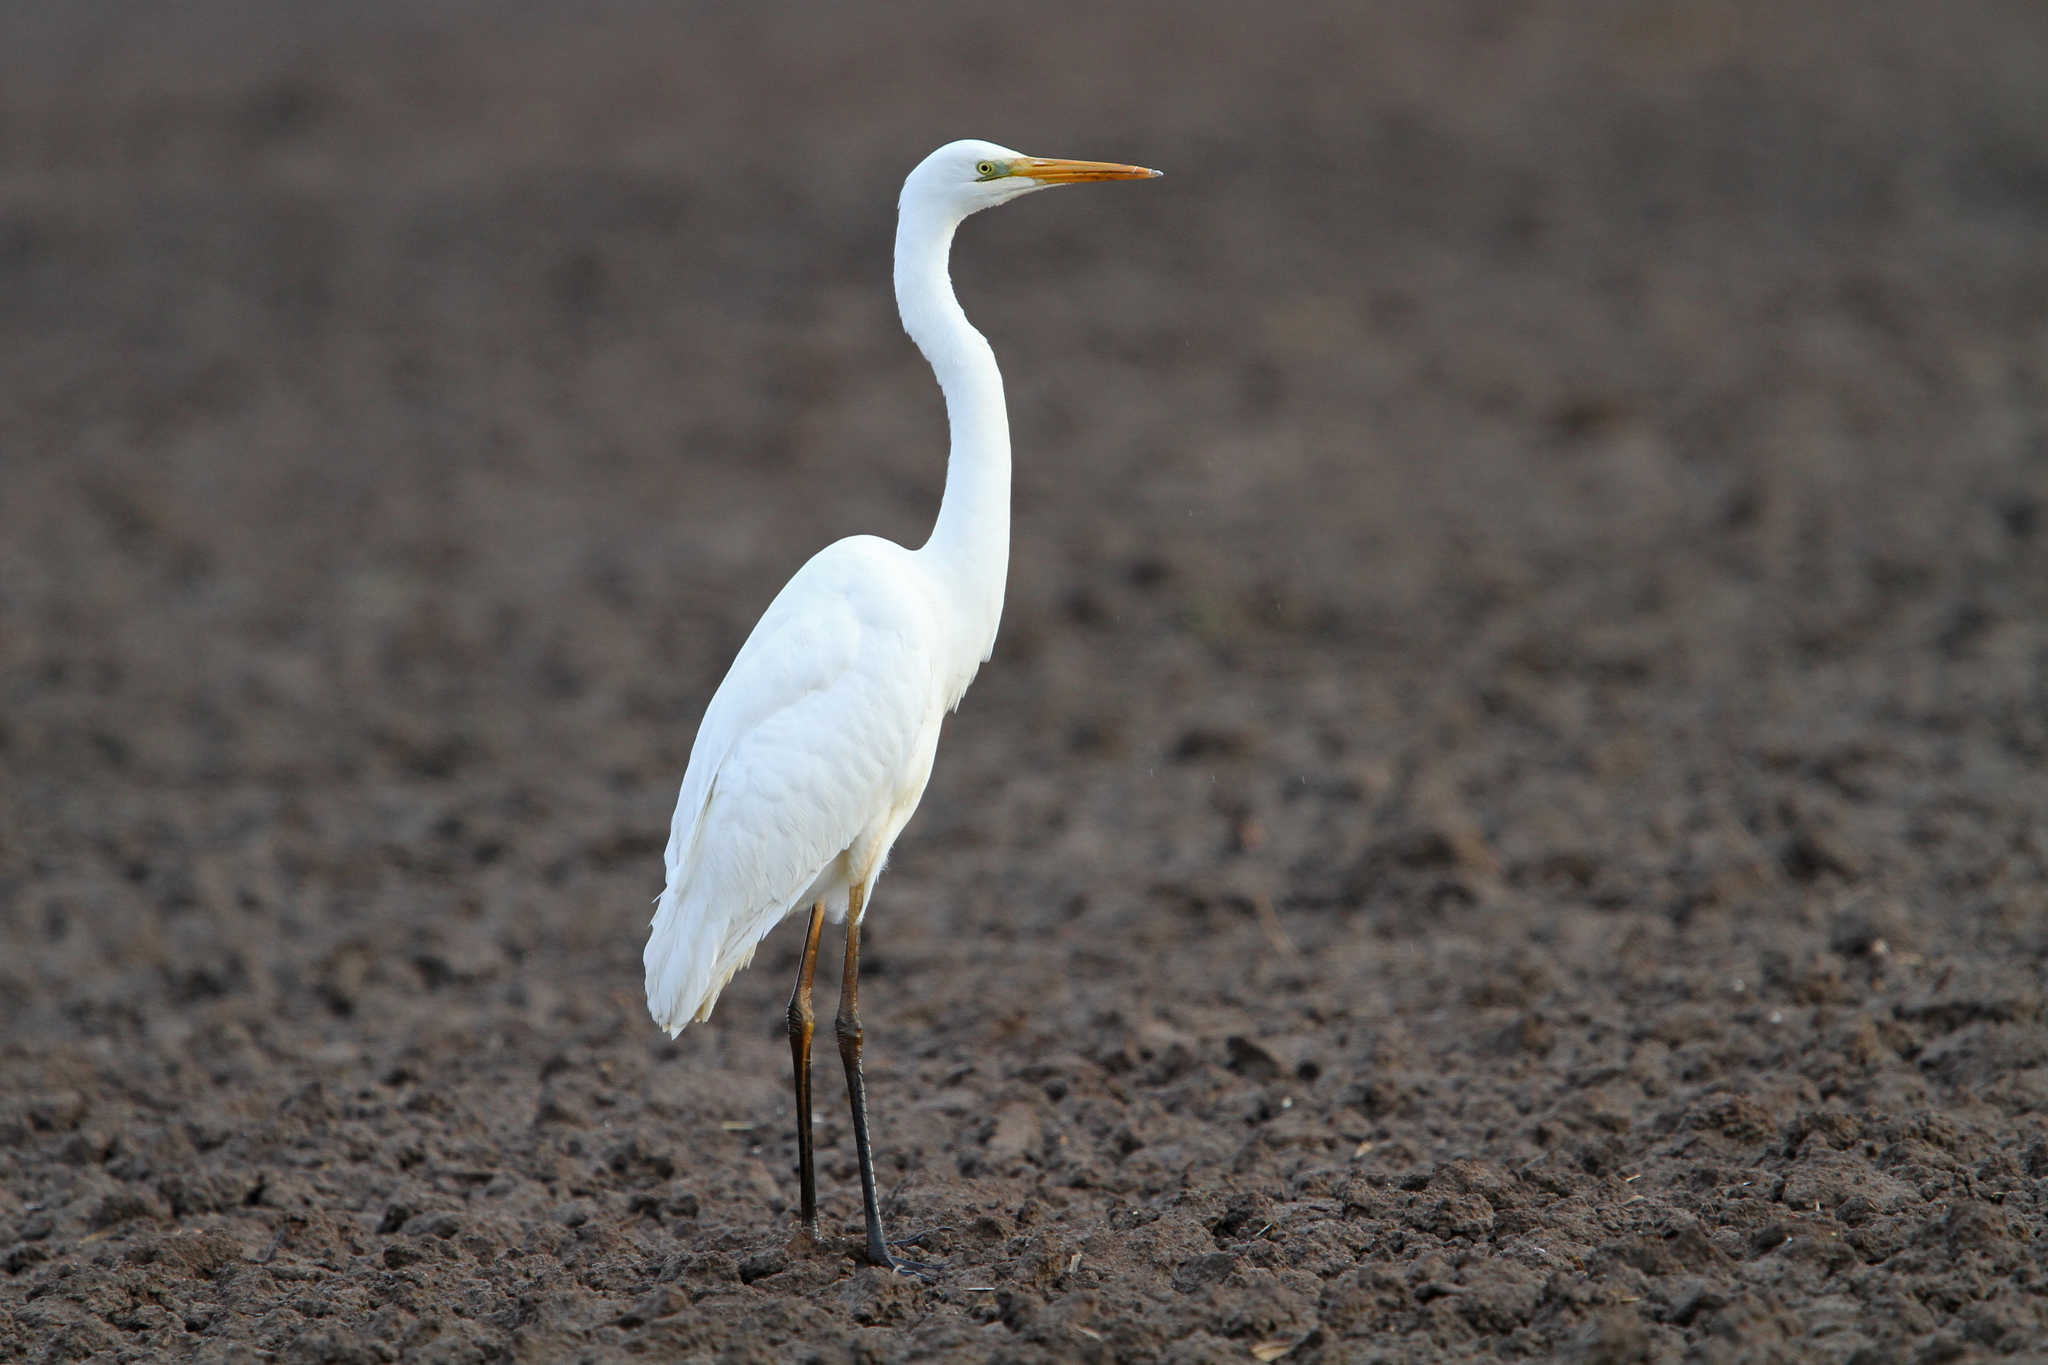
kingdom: Animalia
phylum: Chordata
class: Aves
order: Pelecaniformes
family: Ardeidae
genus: Ardea
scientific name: Ardea alba
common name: Great egret
